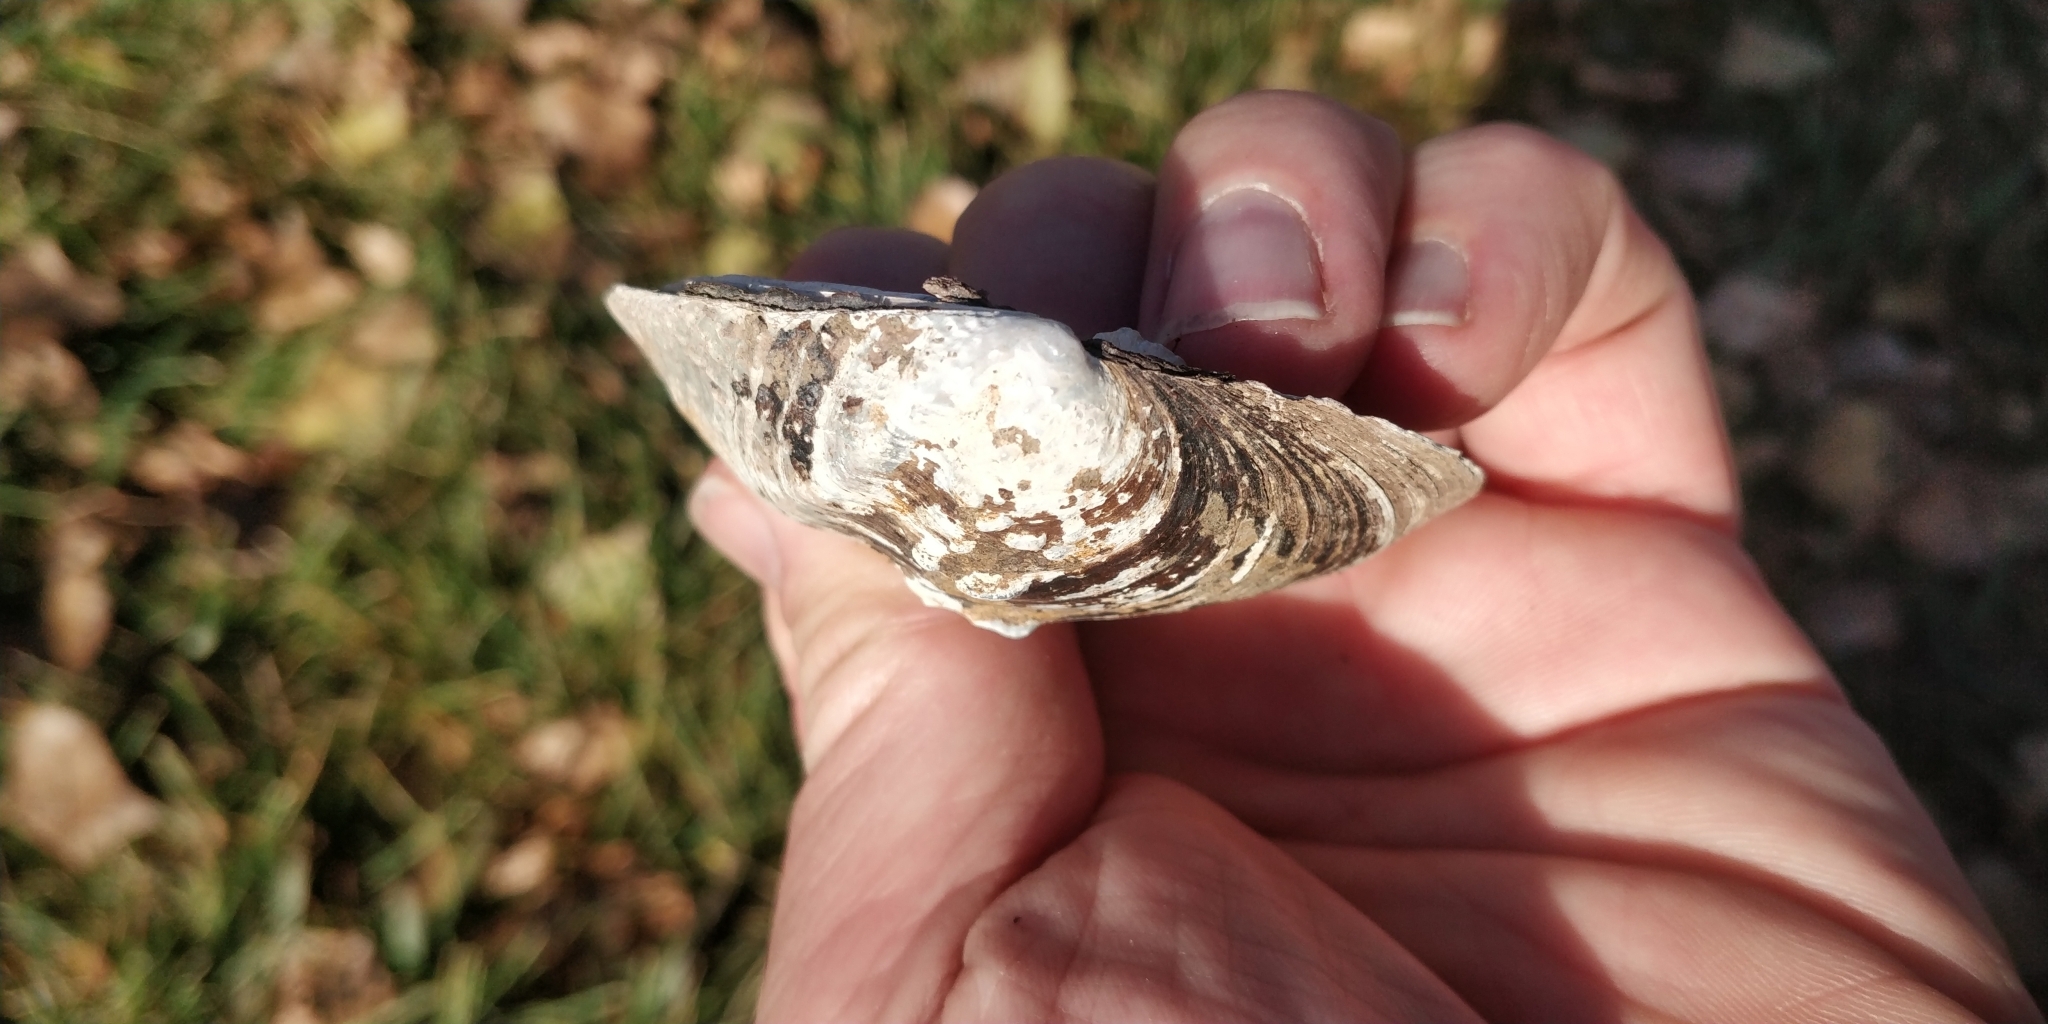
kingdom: Animalia
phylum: Mollusca
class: Bivalvia
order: Unionida
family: Unionidae
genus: Quadrula
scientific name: Quadrula quadrula
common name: Mapleleaf
